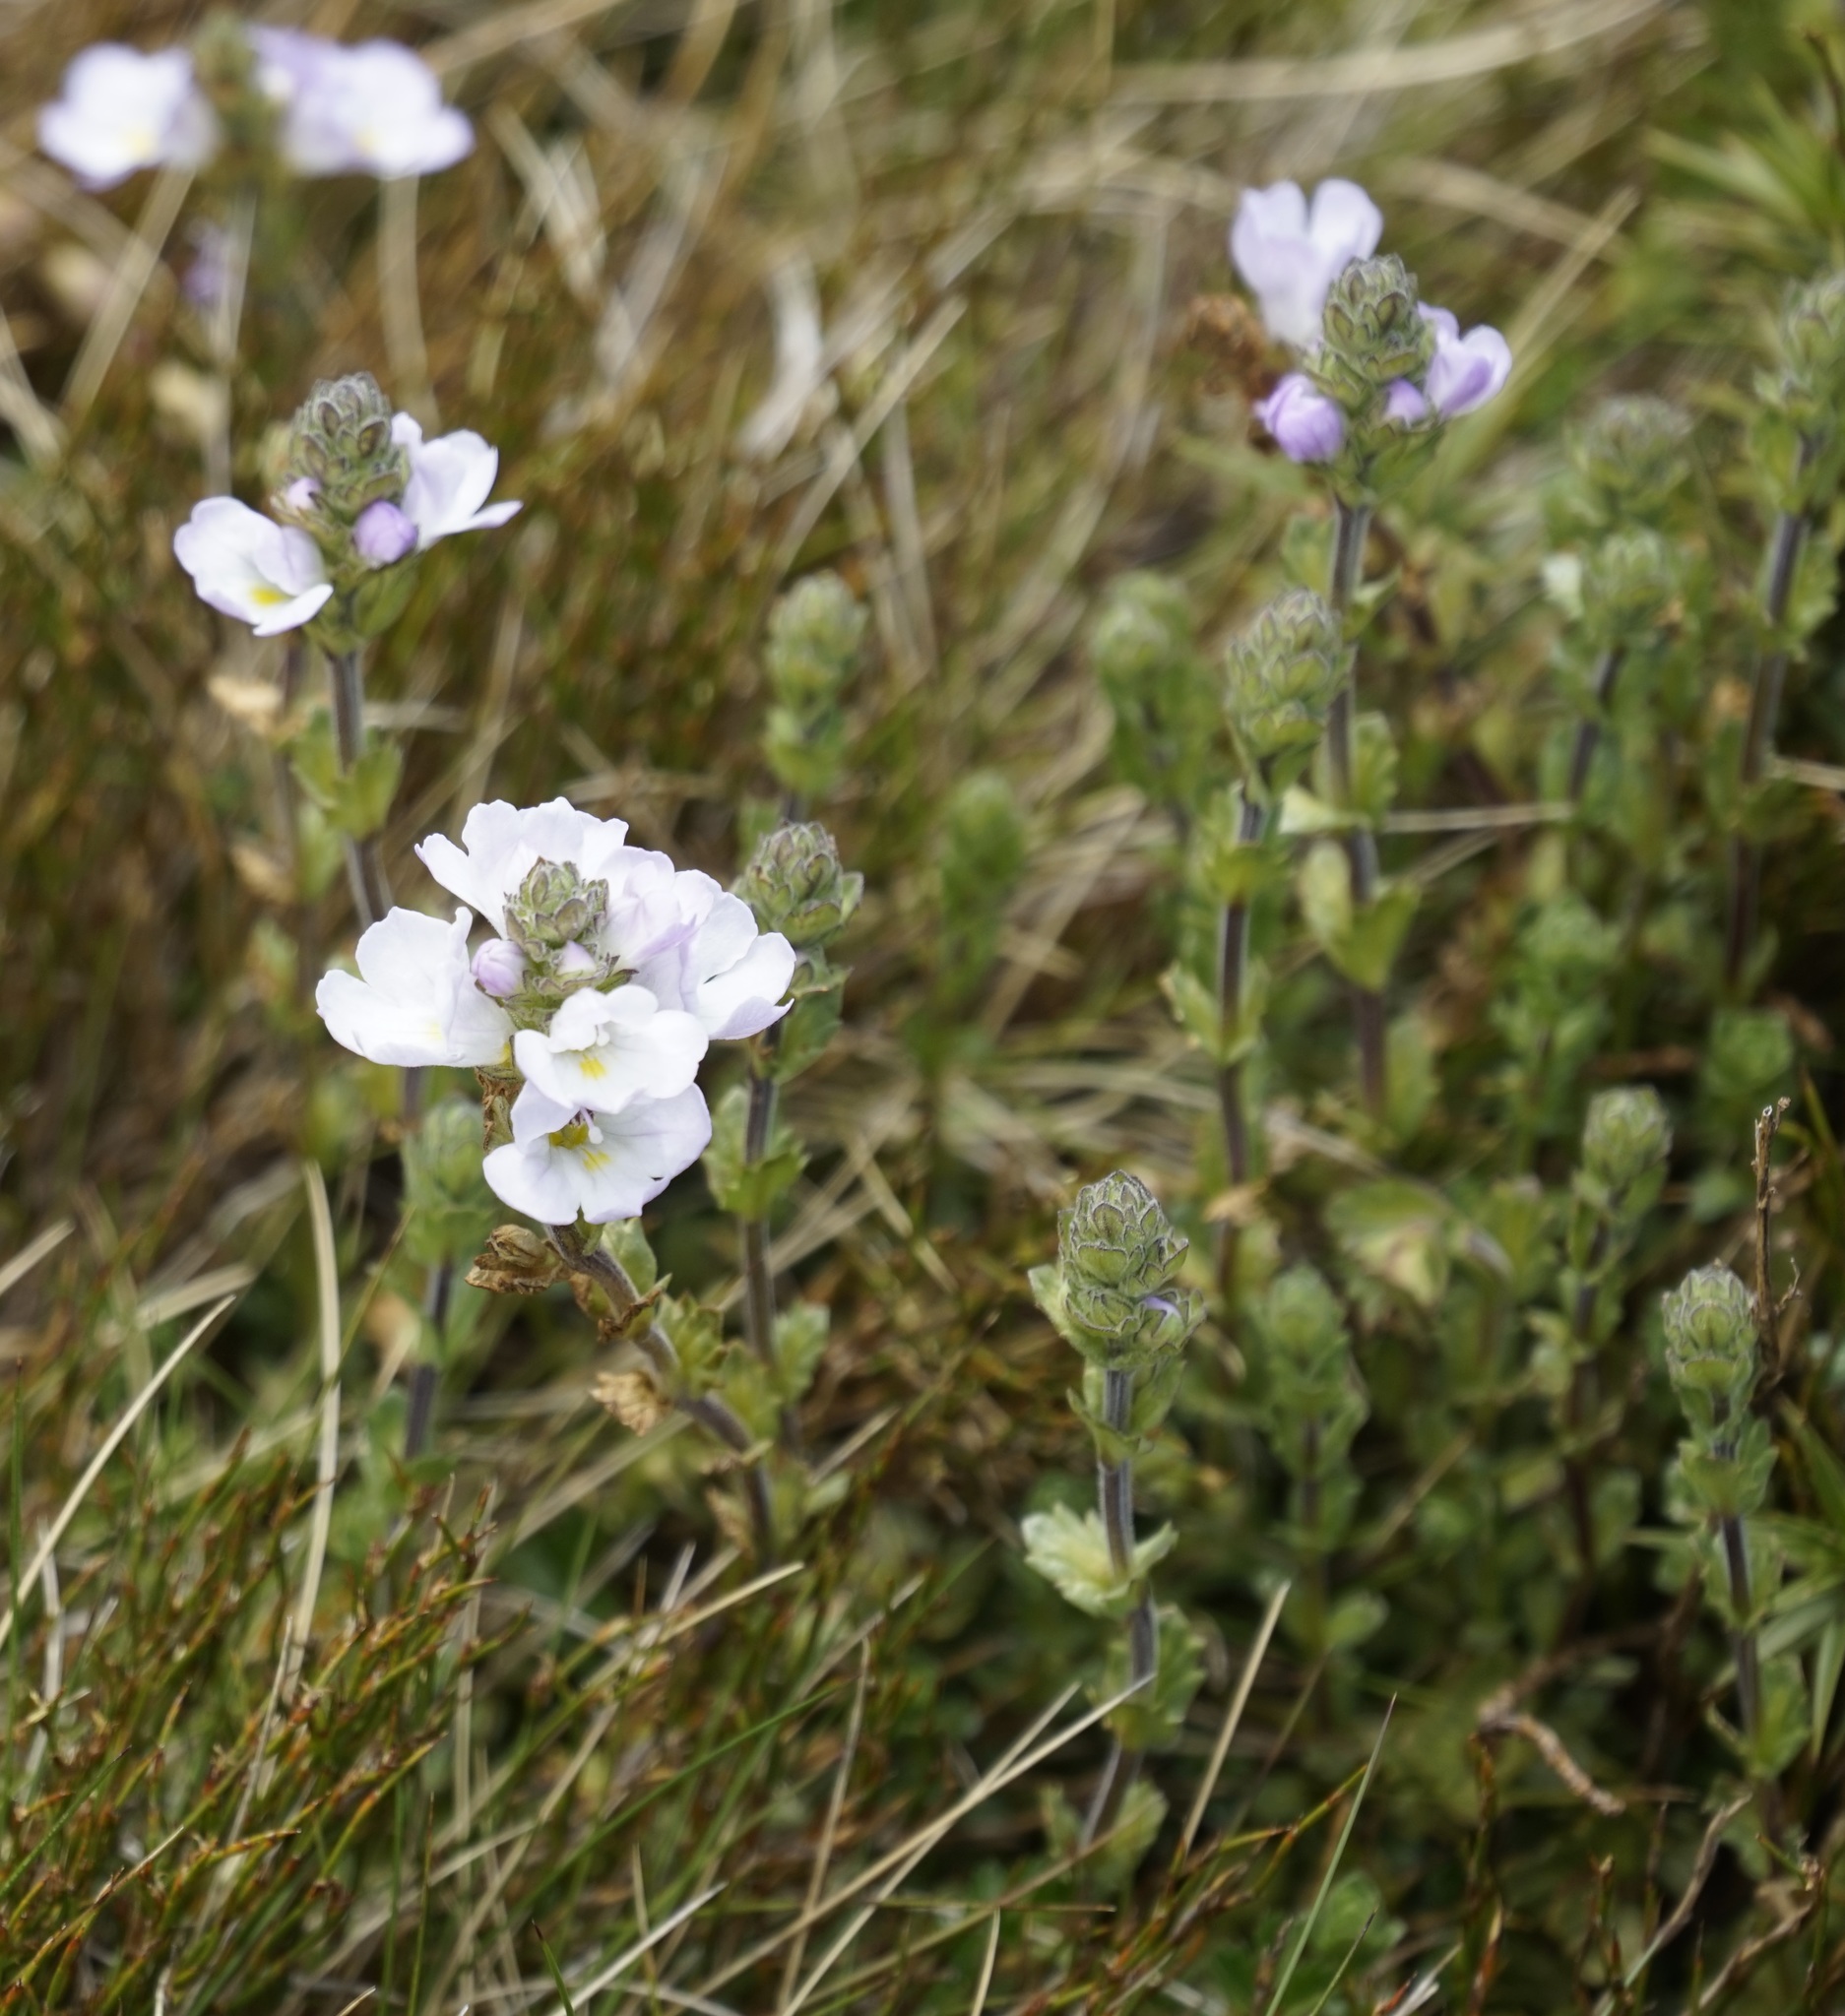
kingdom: Plantae
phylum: Tracheophyta
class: Magnoliopsida
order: Lamiales
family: Orobanchaceae
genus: Euphrasia
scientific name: Euphrasia
